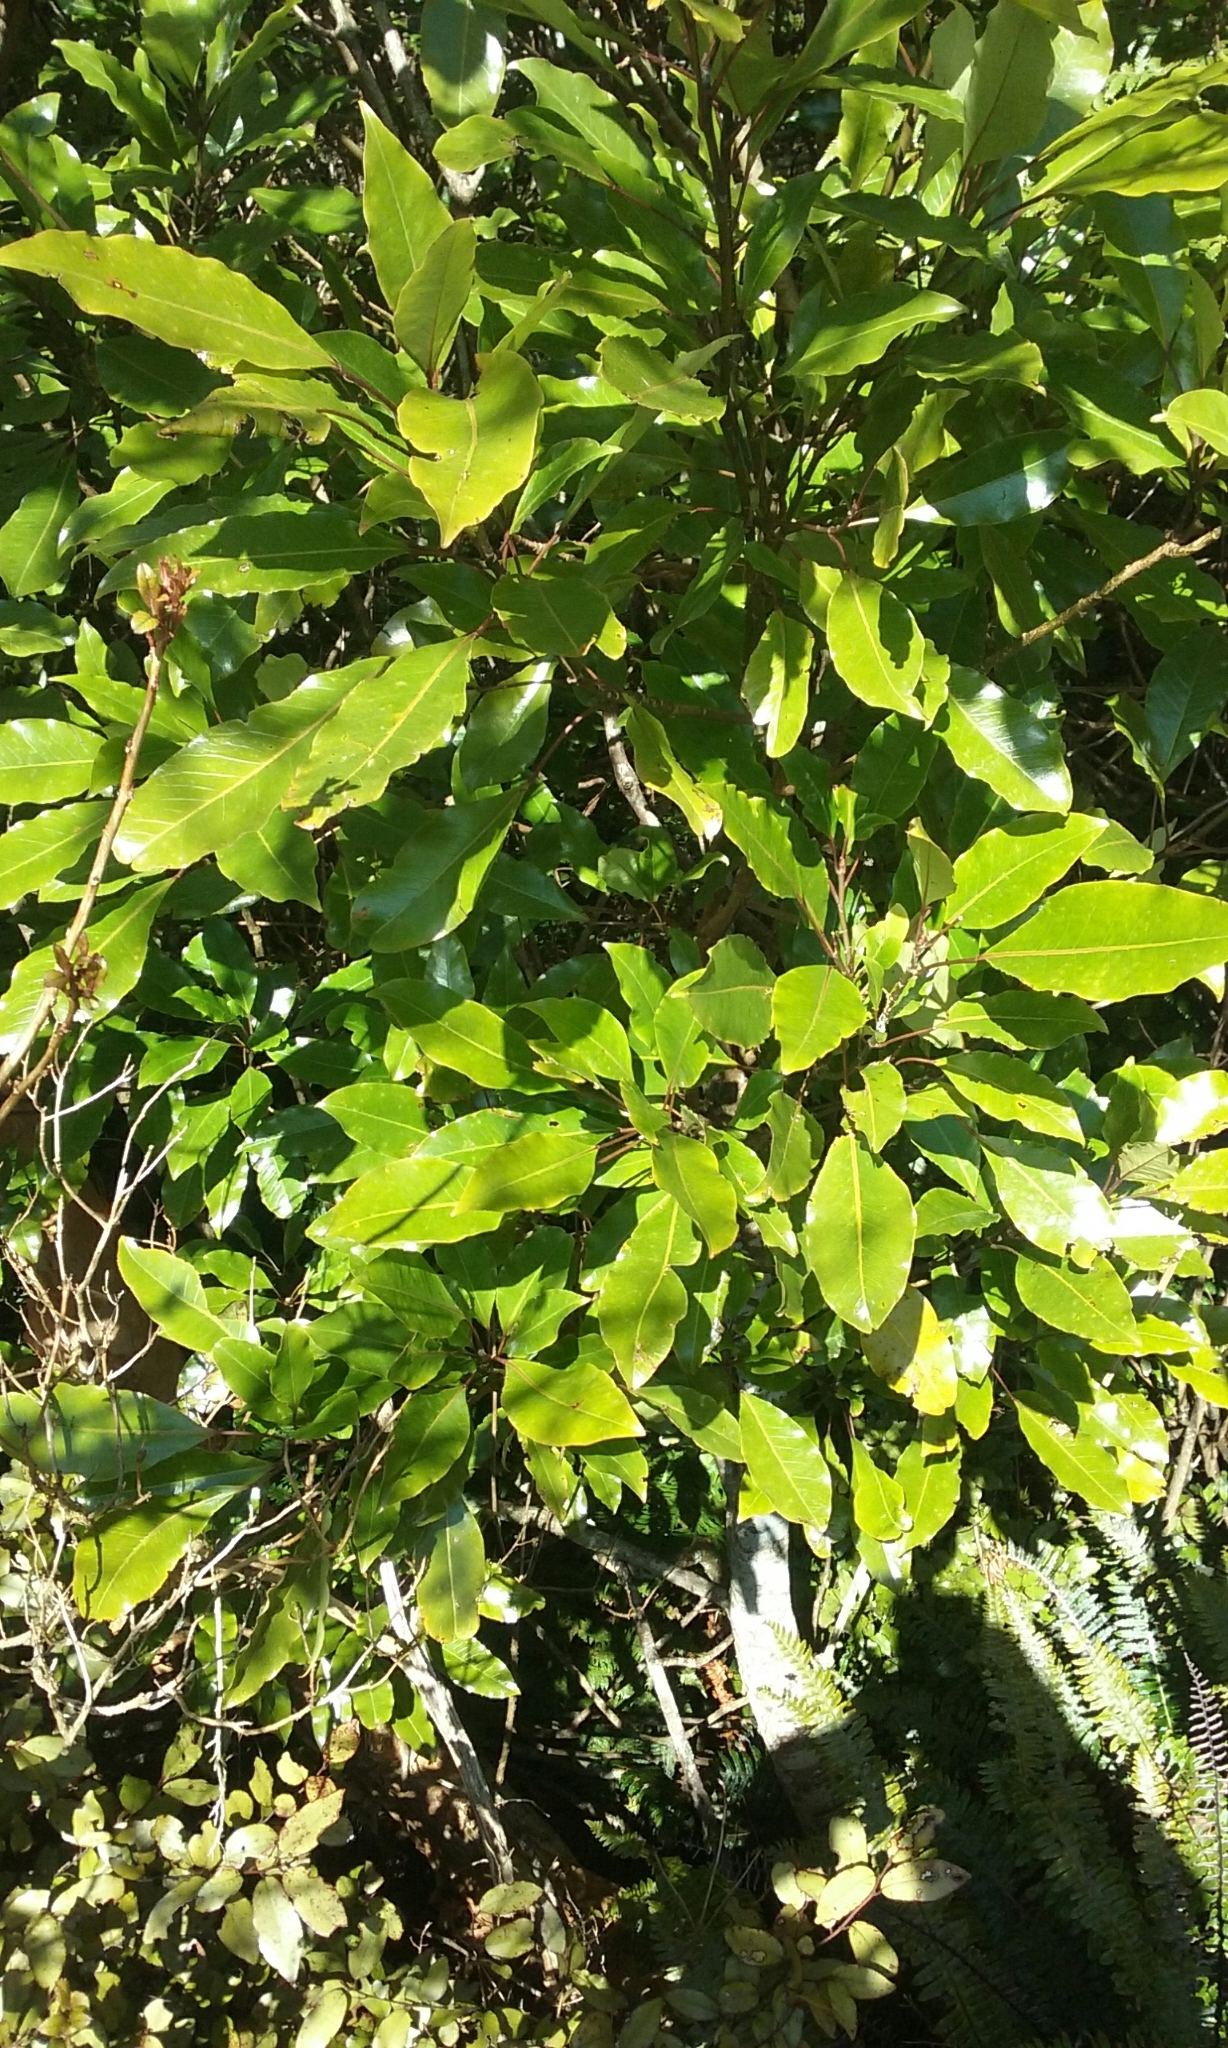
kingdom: Plantae
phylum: Tracheophyta
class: Magnoliopsida
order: Apiales
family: Araliaceae
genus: Raukaua
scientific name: Raukaua edgerleyi
